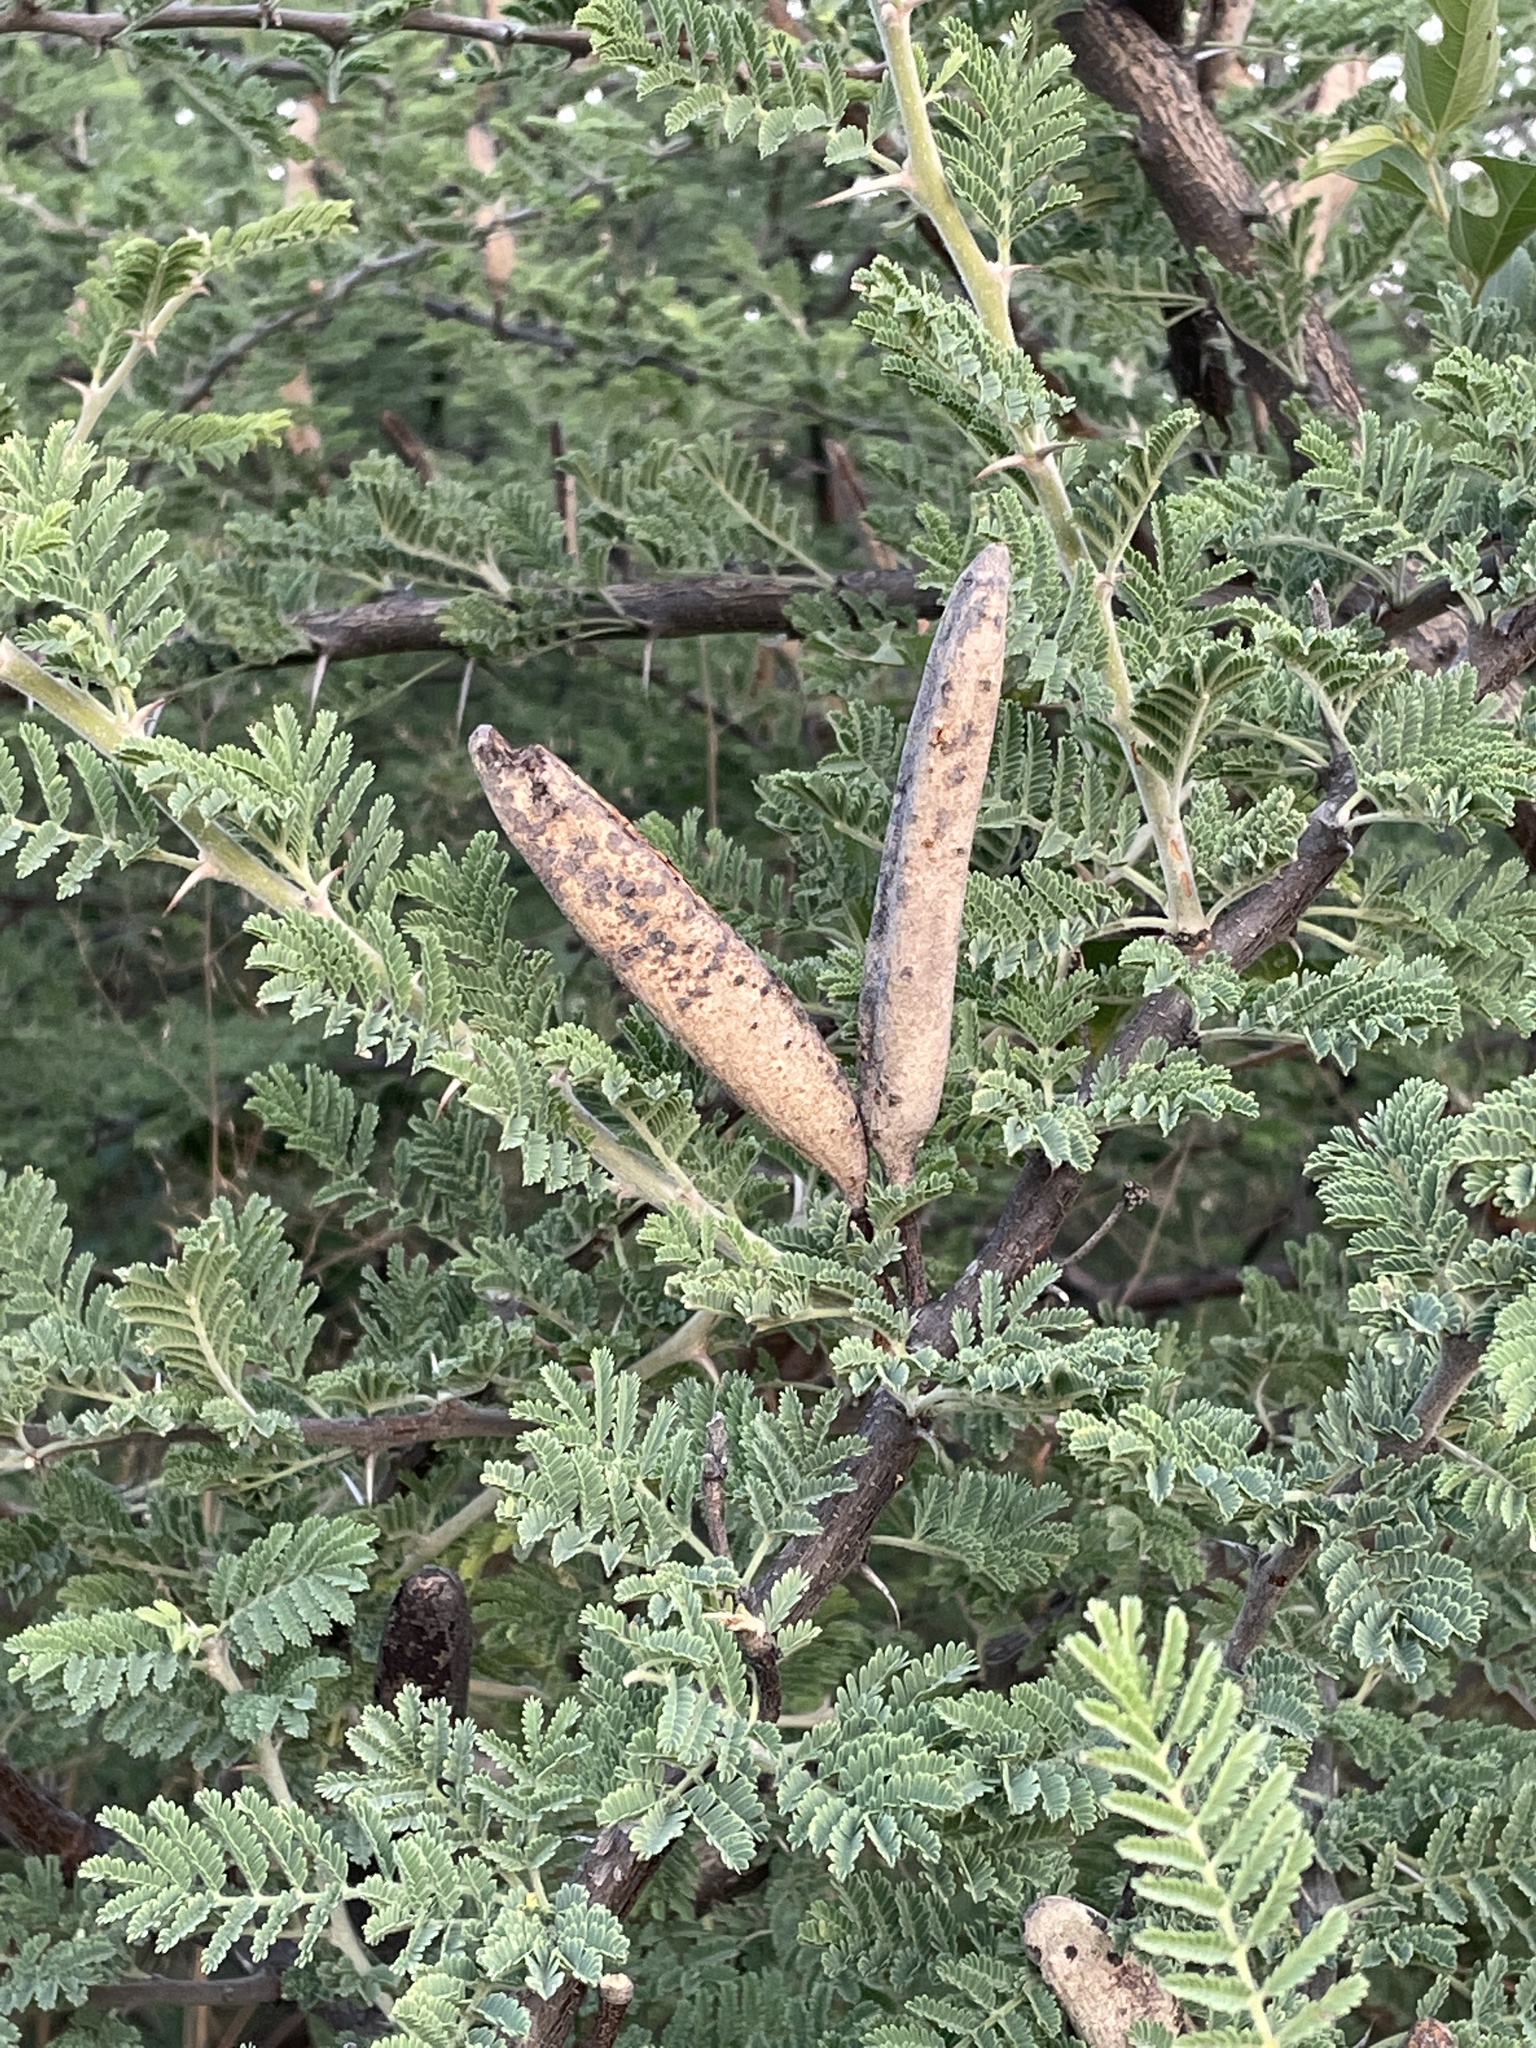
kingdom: Plantae
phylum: Tracheophyta
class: Magnoliopsida
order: Fabales
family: Fabaceae
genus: Vachellia
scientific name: Vachellia hebeclada
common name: Candle thorn
